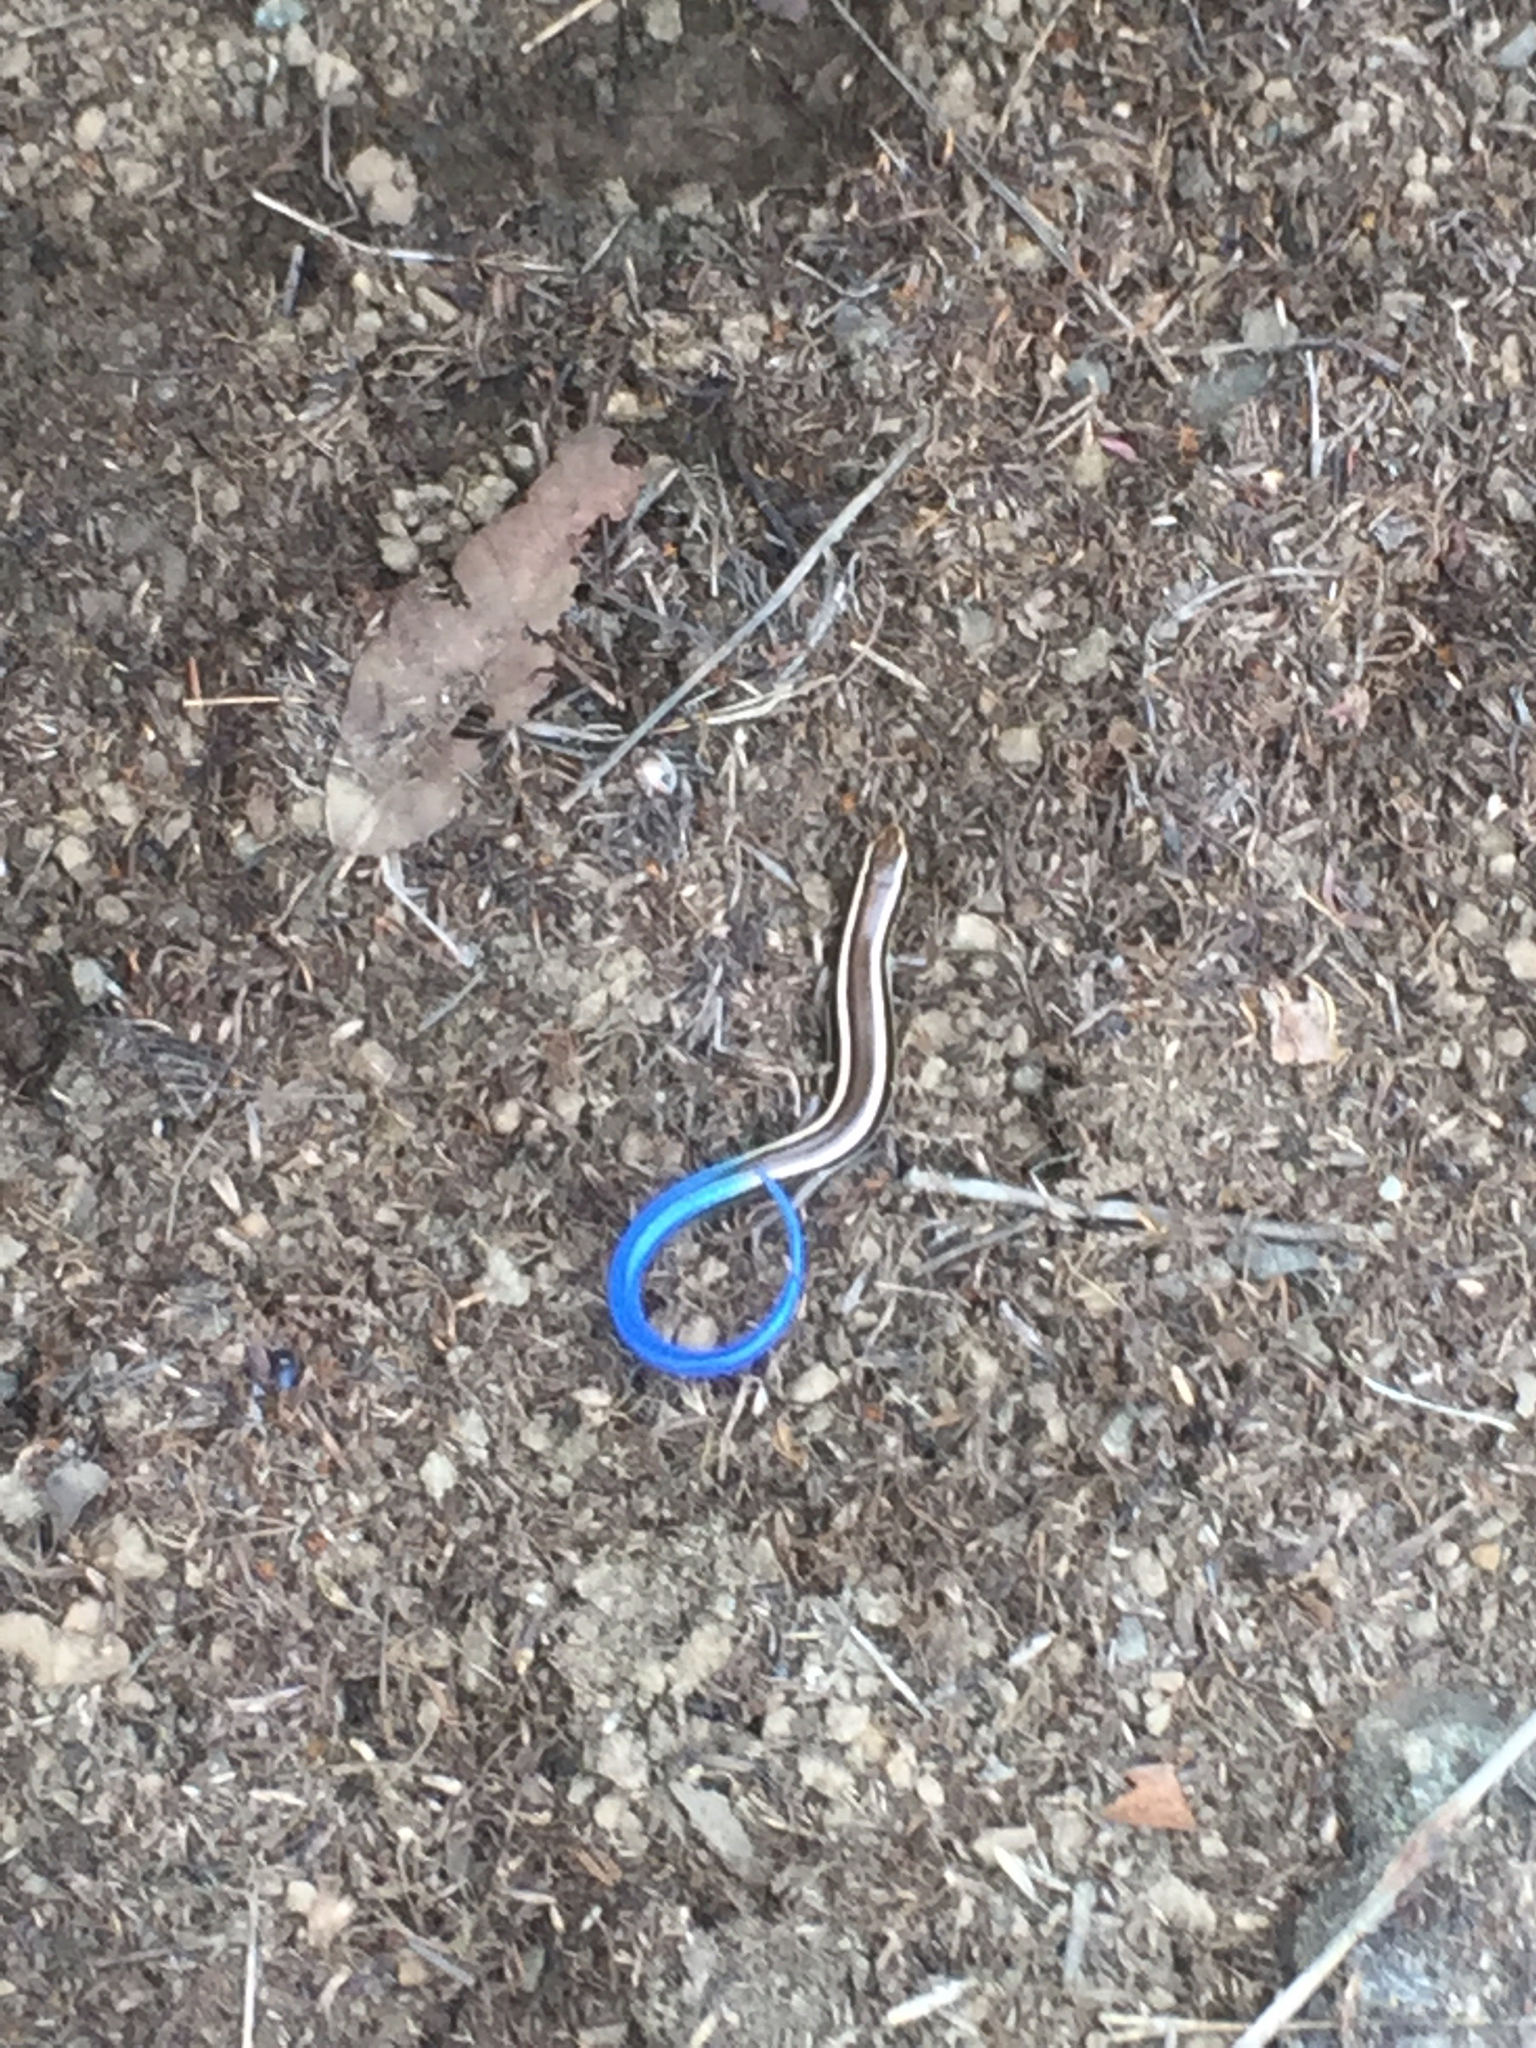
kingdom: Animalia
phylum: Chordata
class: Squamata
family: Scincidae
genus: Plestiodon
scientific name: Plestiodon skiltonianus
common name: Coronado island skink [interparietalis]
